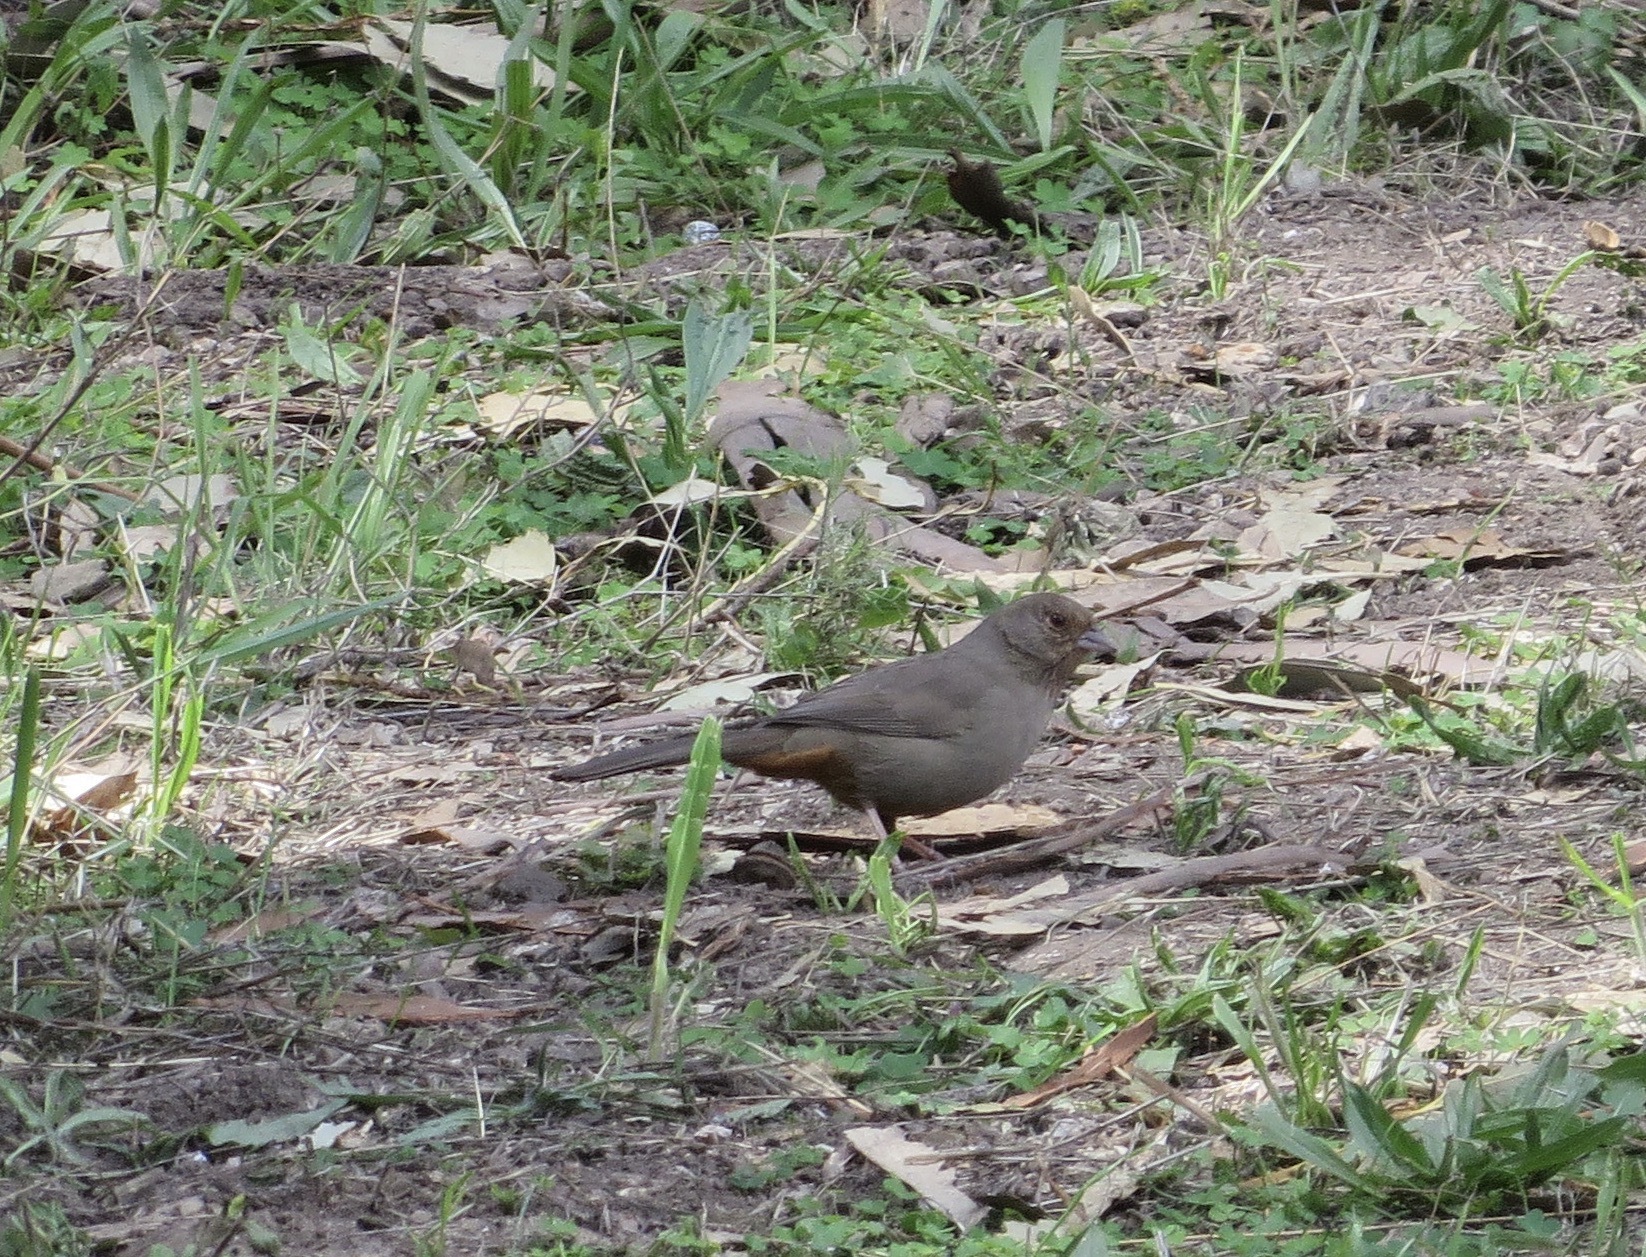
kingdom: Animalia
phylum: Chordata
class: Aves
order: Passeriformes
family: Passerellidae
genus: Melozone
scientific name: Melozone crissalis
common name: California towhee
